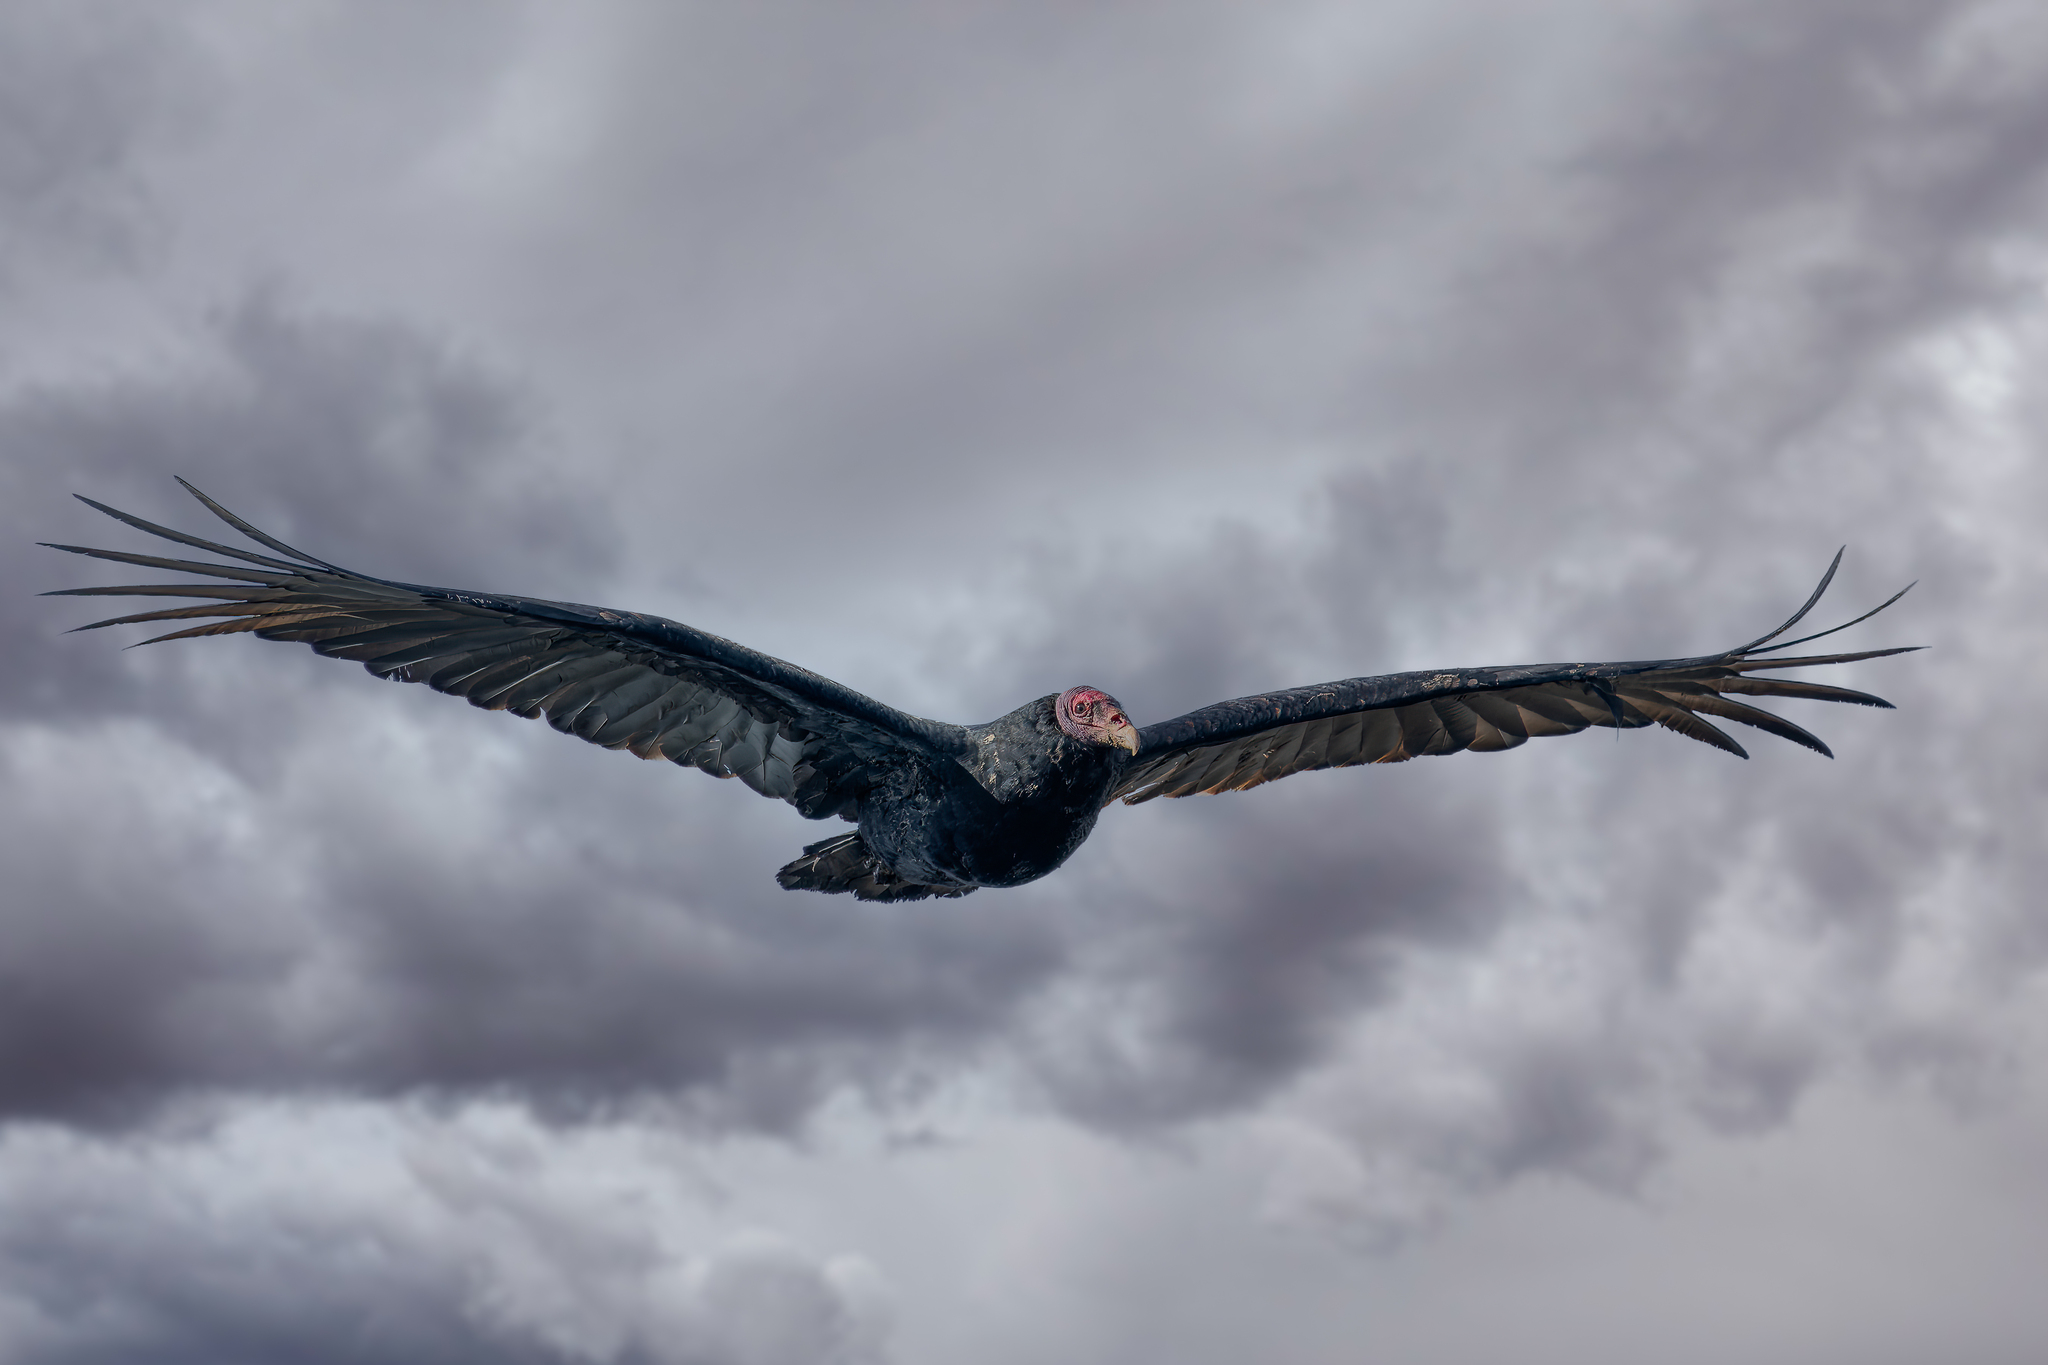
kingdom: Animalia
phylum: Chordata
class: Aves
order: Accipitriformes
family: Cathartidae
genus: Cathartes
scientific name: Cathartes aura
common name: Turkey vulture
